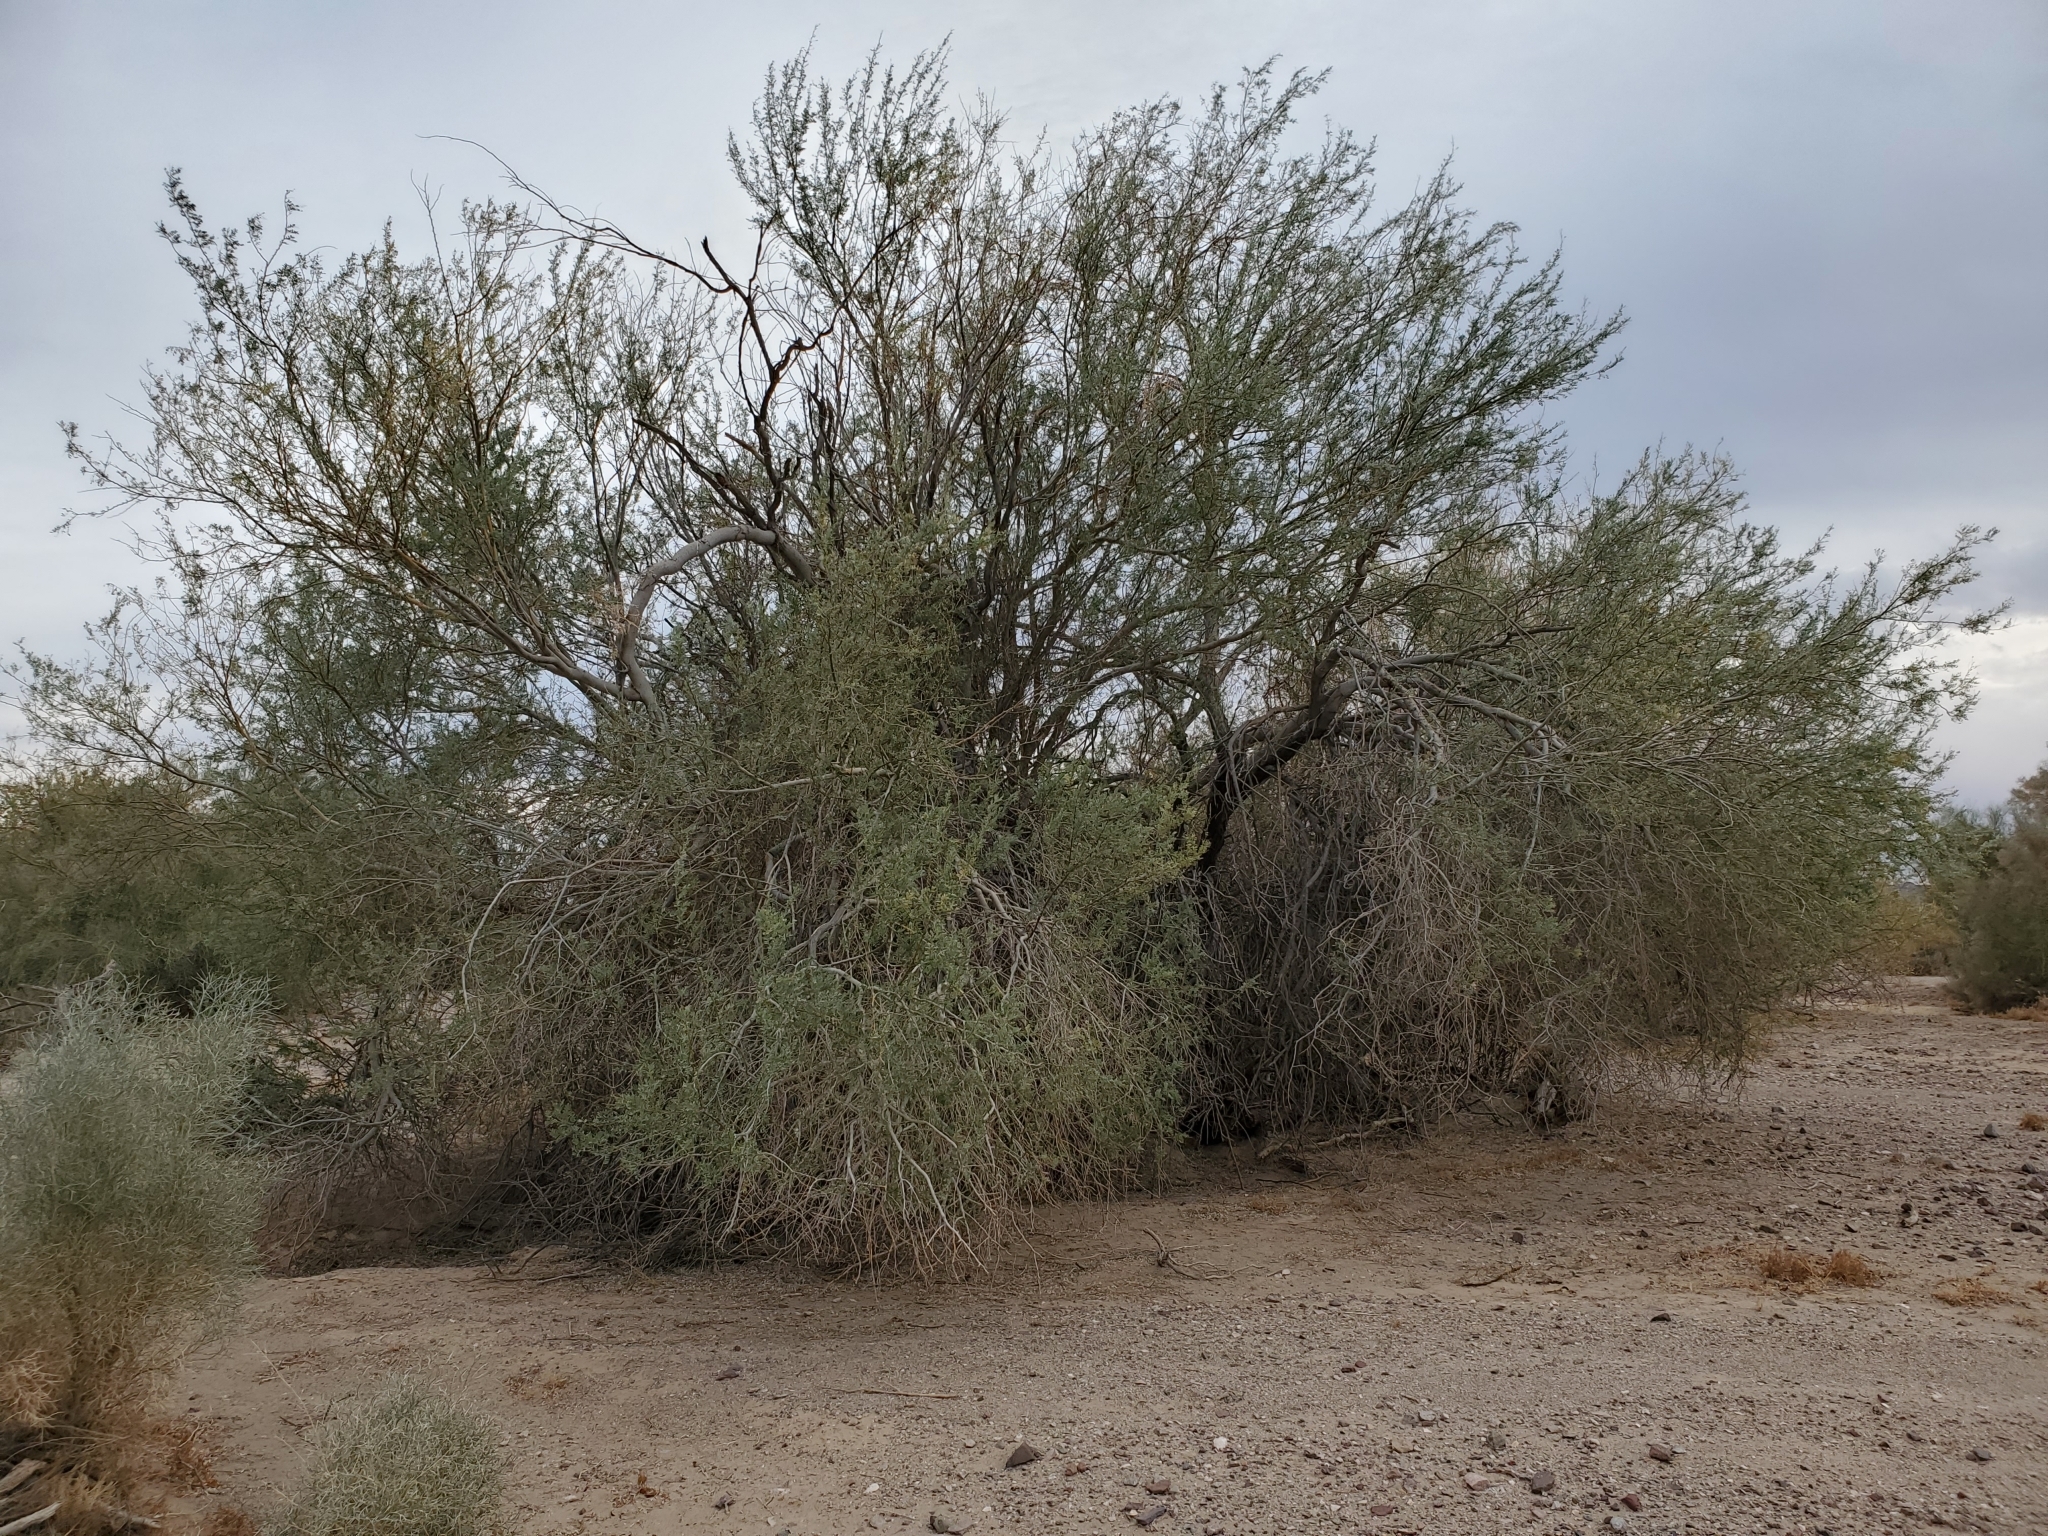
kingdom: Plantae
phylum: Tracheophyta
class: Magnoliopsida
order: Fabales
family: Fabaceae
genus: Olneya
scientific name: Olneya tesota
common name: Desert ironwood
